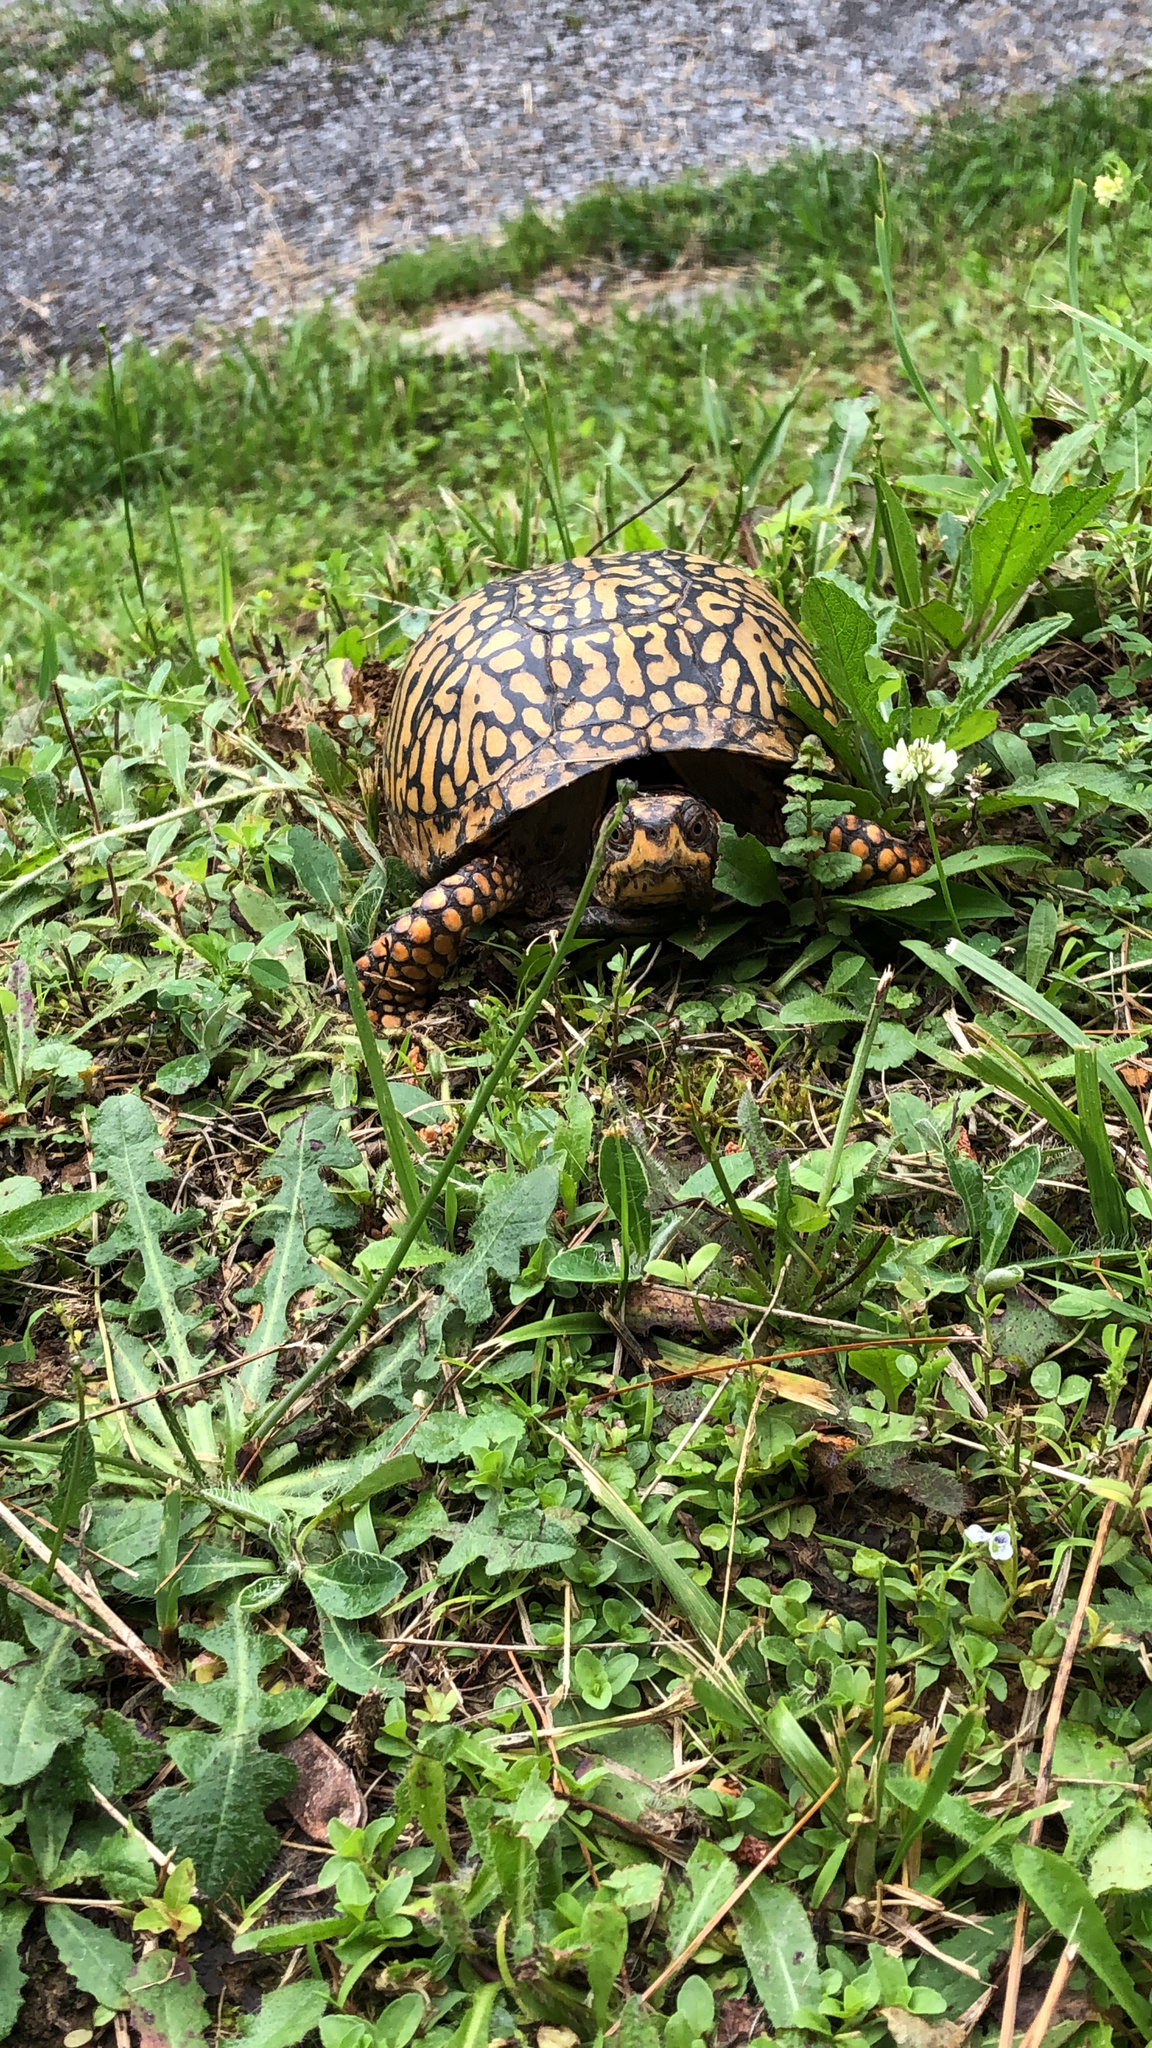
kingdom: Animalia
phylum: Chordata
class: Testudines
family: Emydidae
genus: Terrapene
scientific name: Terrapene carolina
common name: Common box turtle
